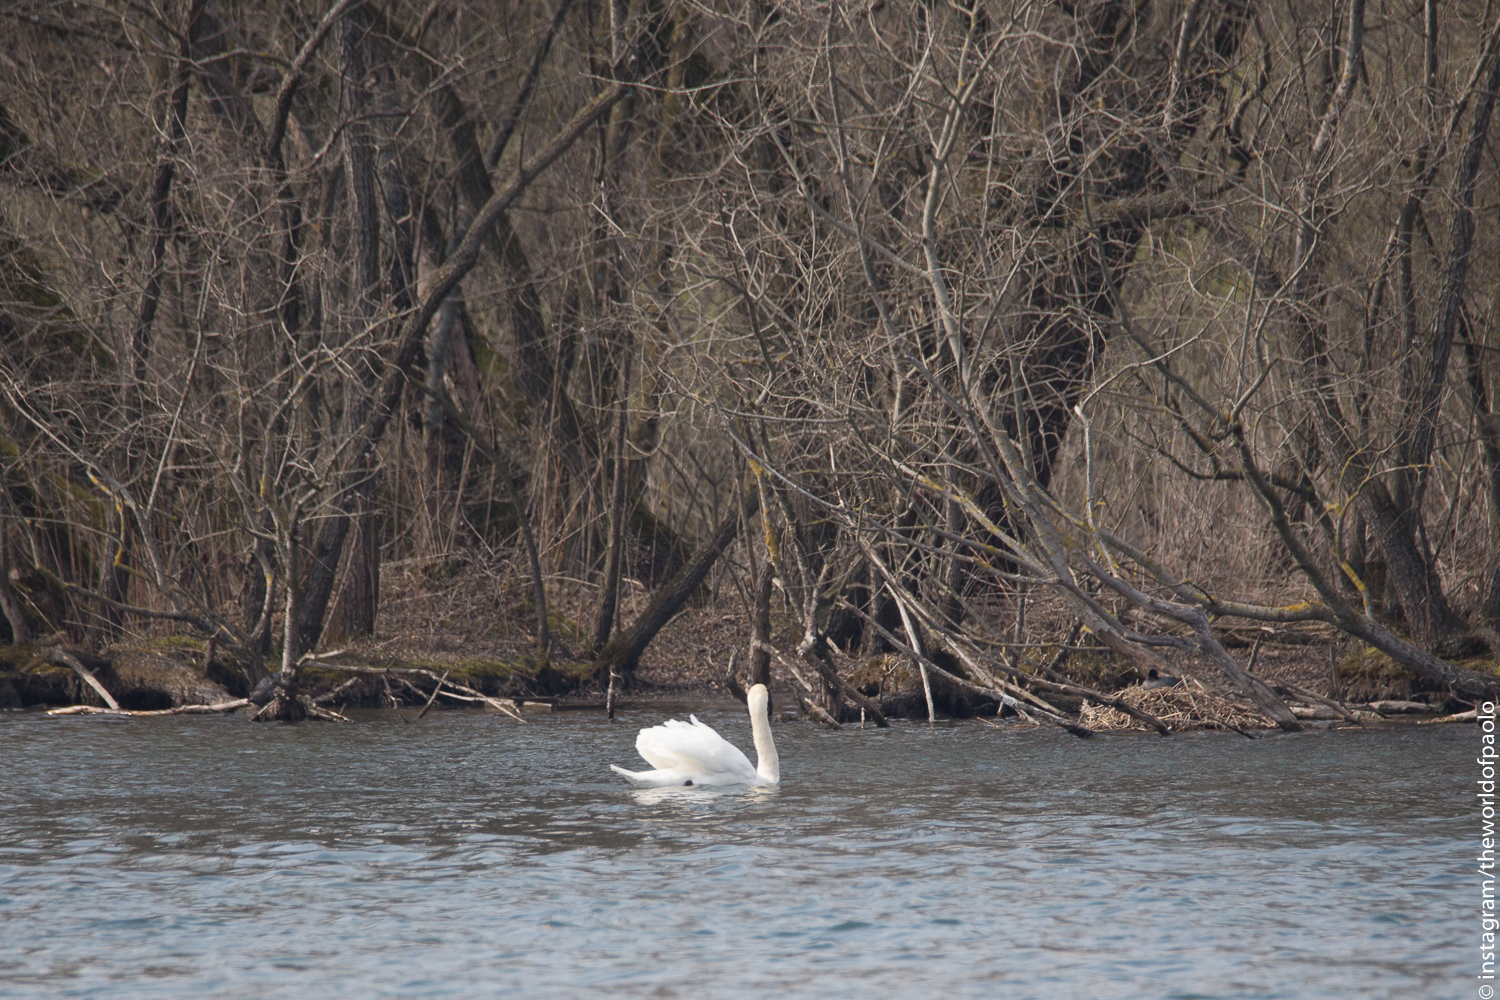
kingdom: Animalia
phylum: Chordata
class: Aves
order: Anseriformes
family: Anatidae
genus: Cygnus
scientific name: Cygnus olor
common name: Mute swan
